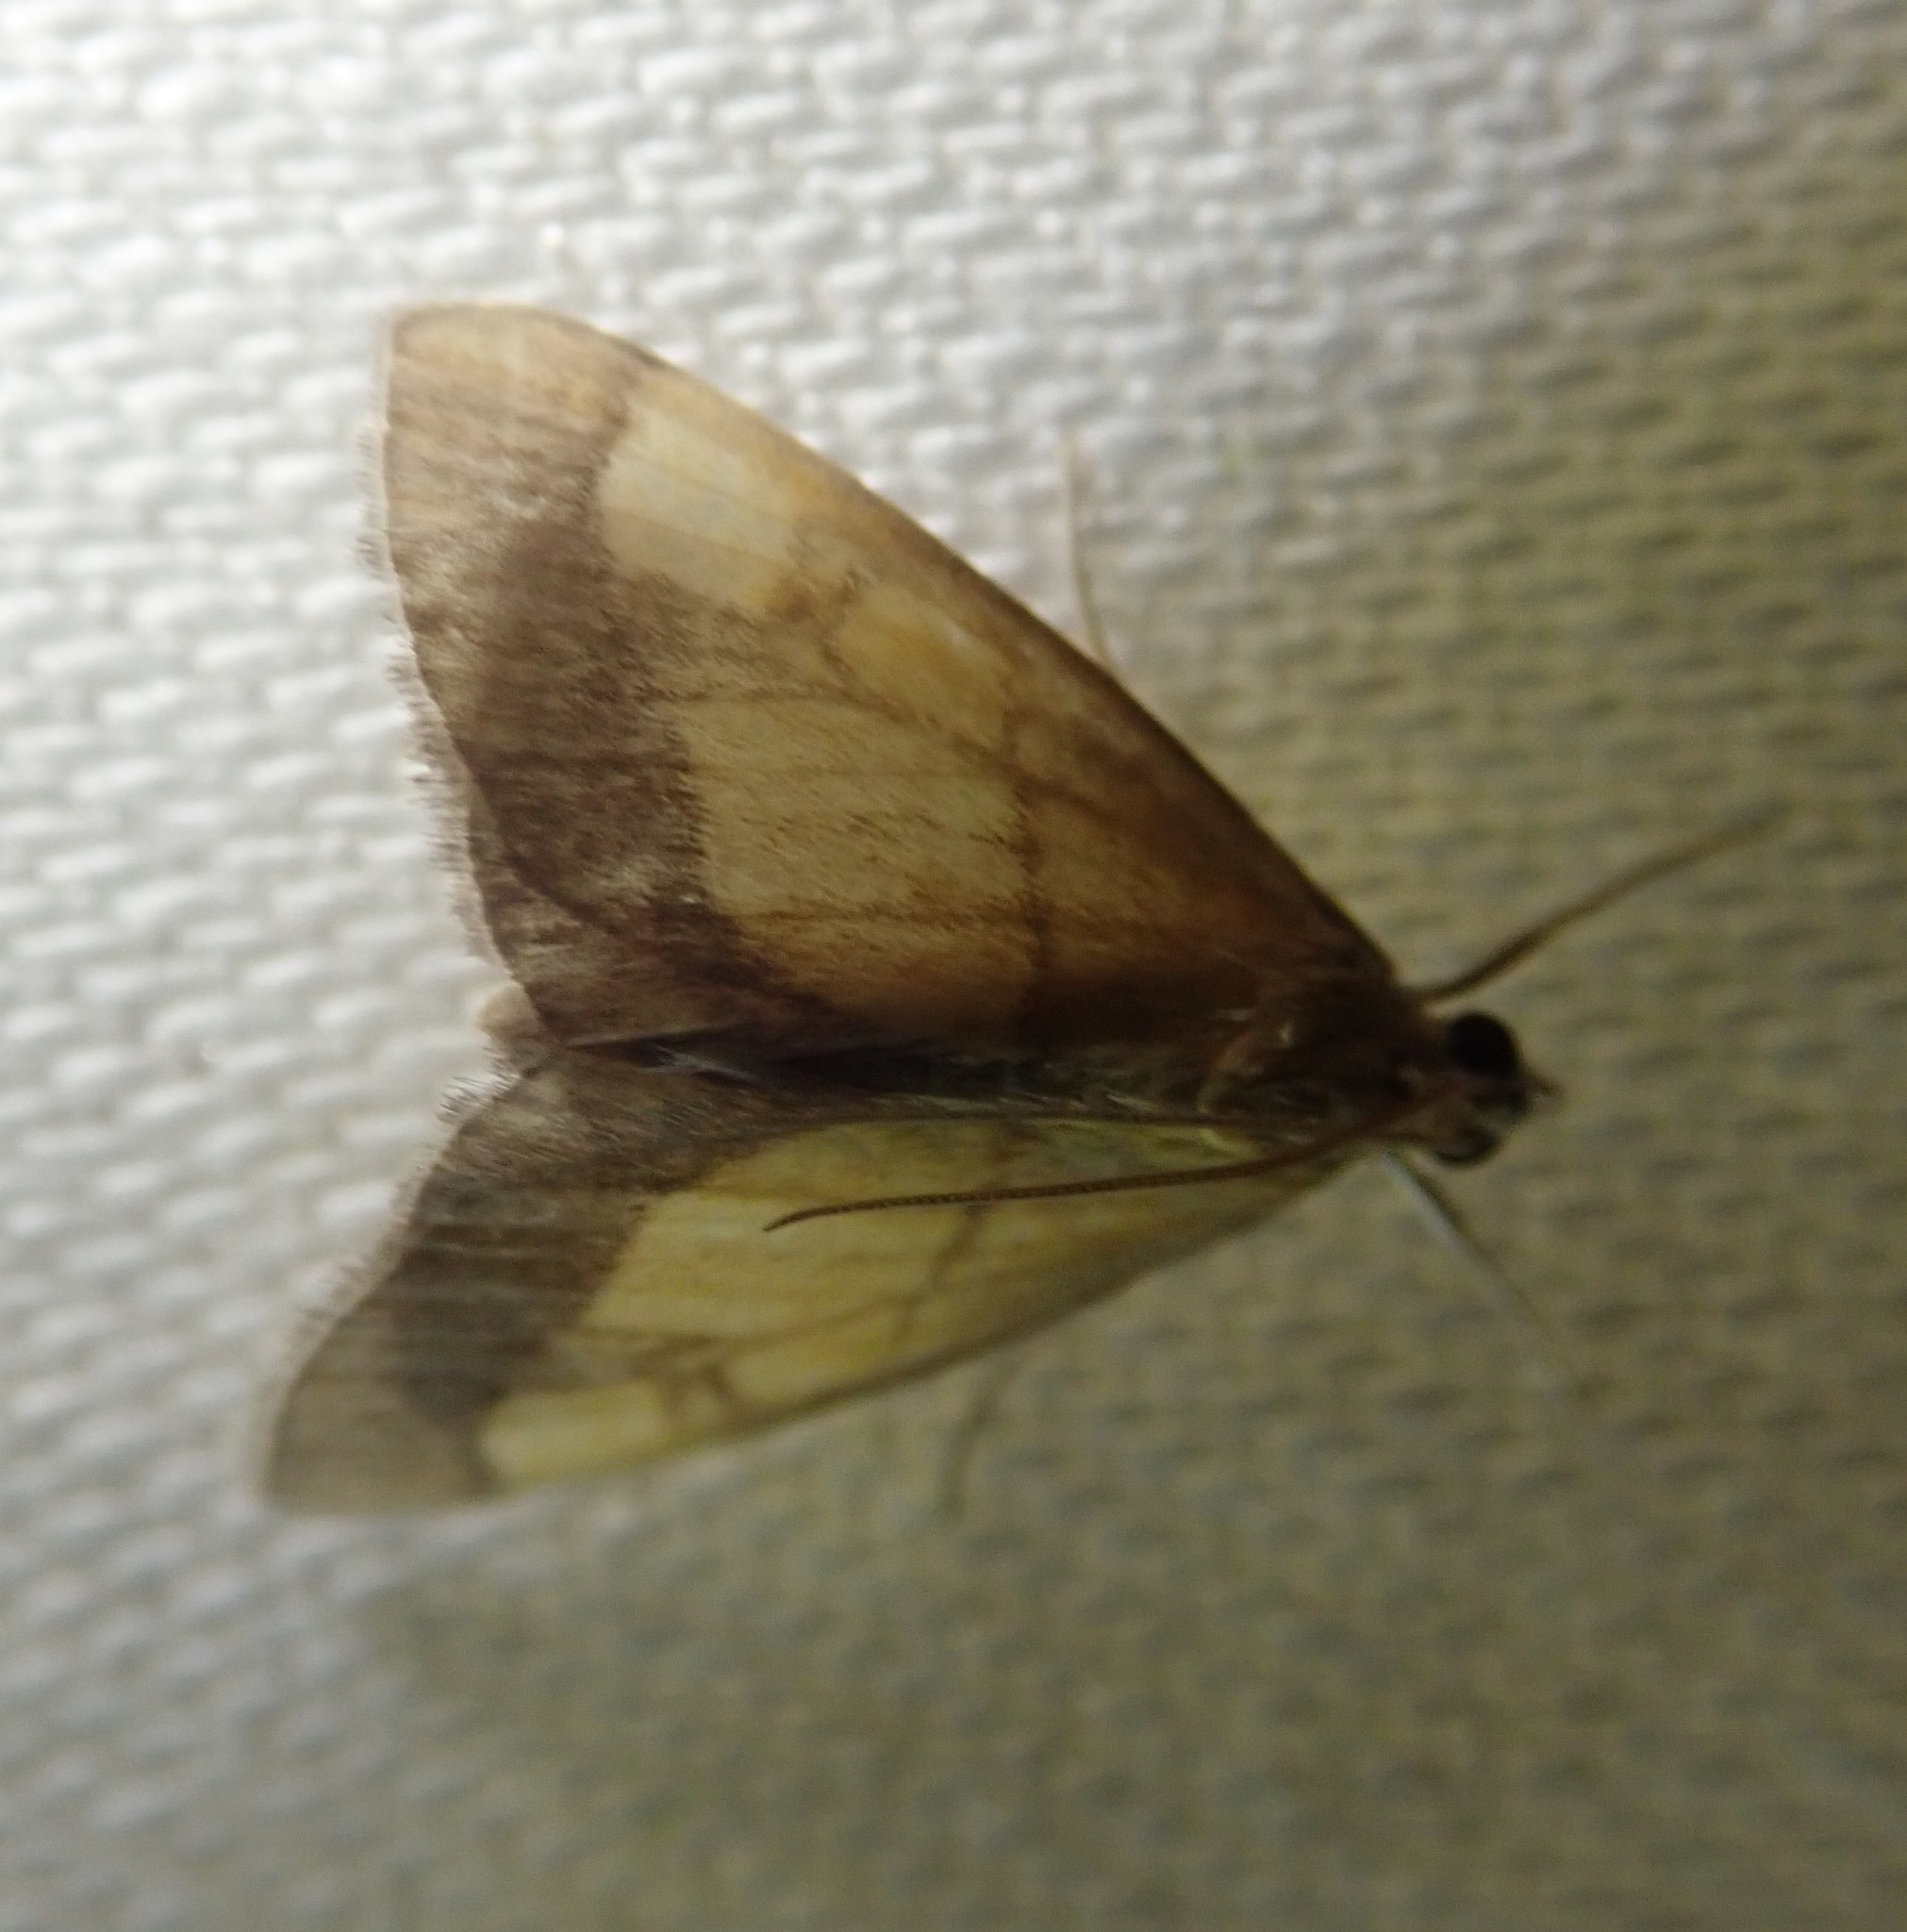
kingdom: Animalia
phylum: Arthropoda
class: Insecta
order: Lepidoptera
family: Crambidae
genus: Evergestis
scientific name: Evergestis limbata
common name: Dark bordered pearl
